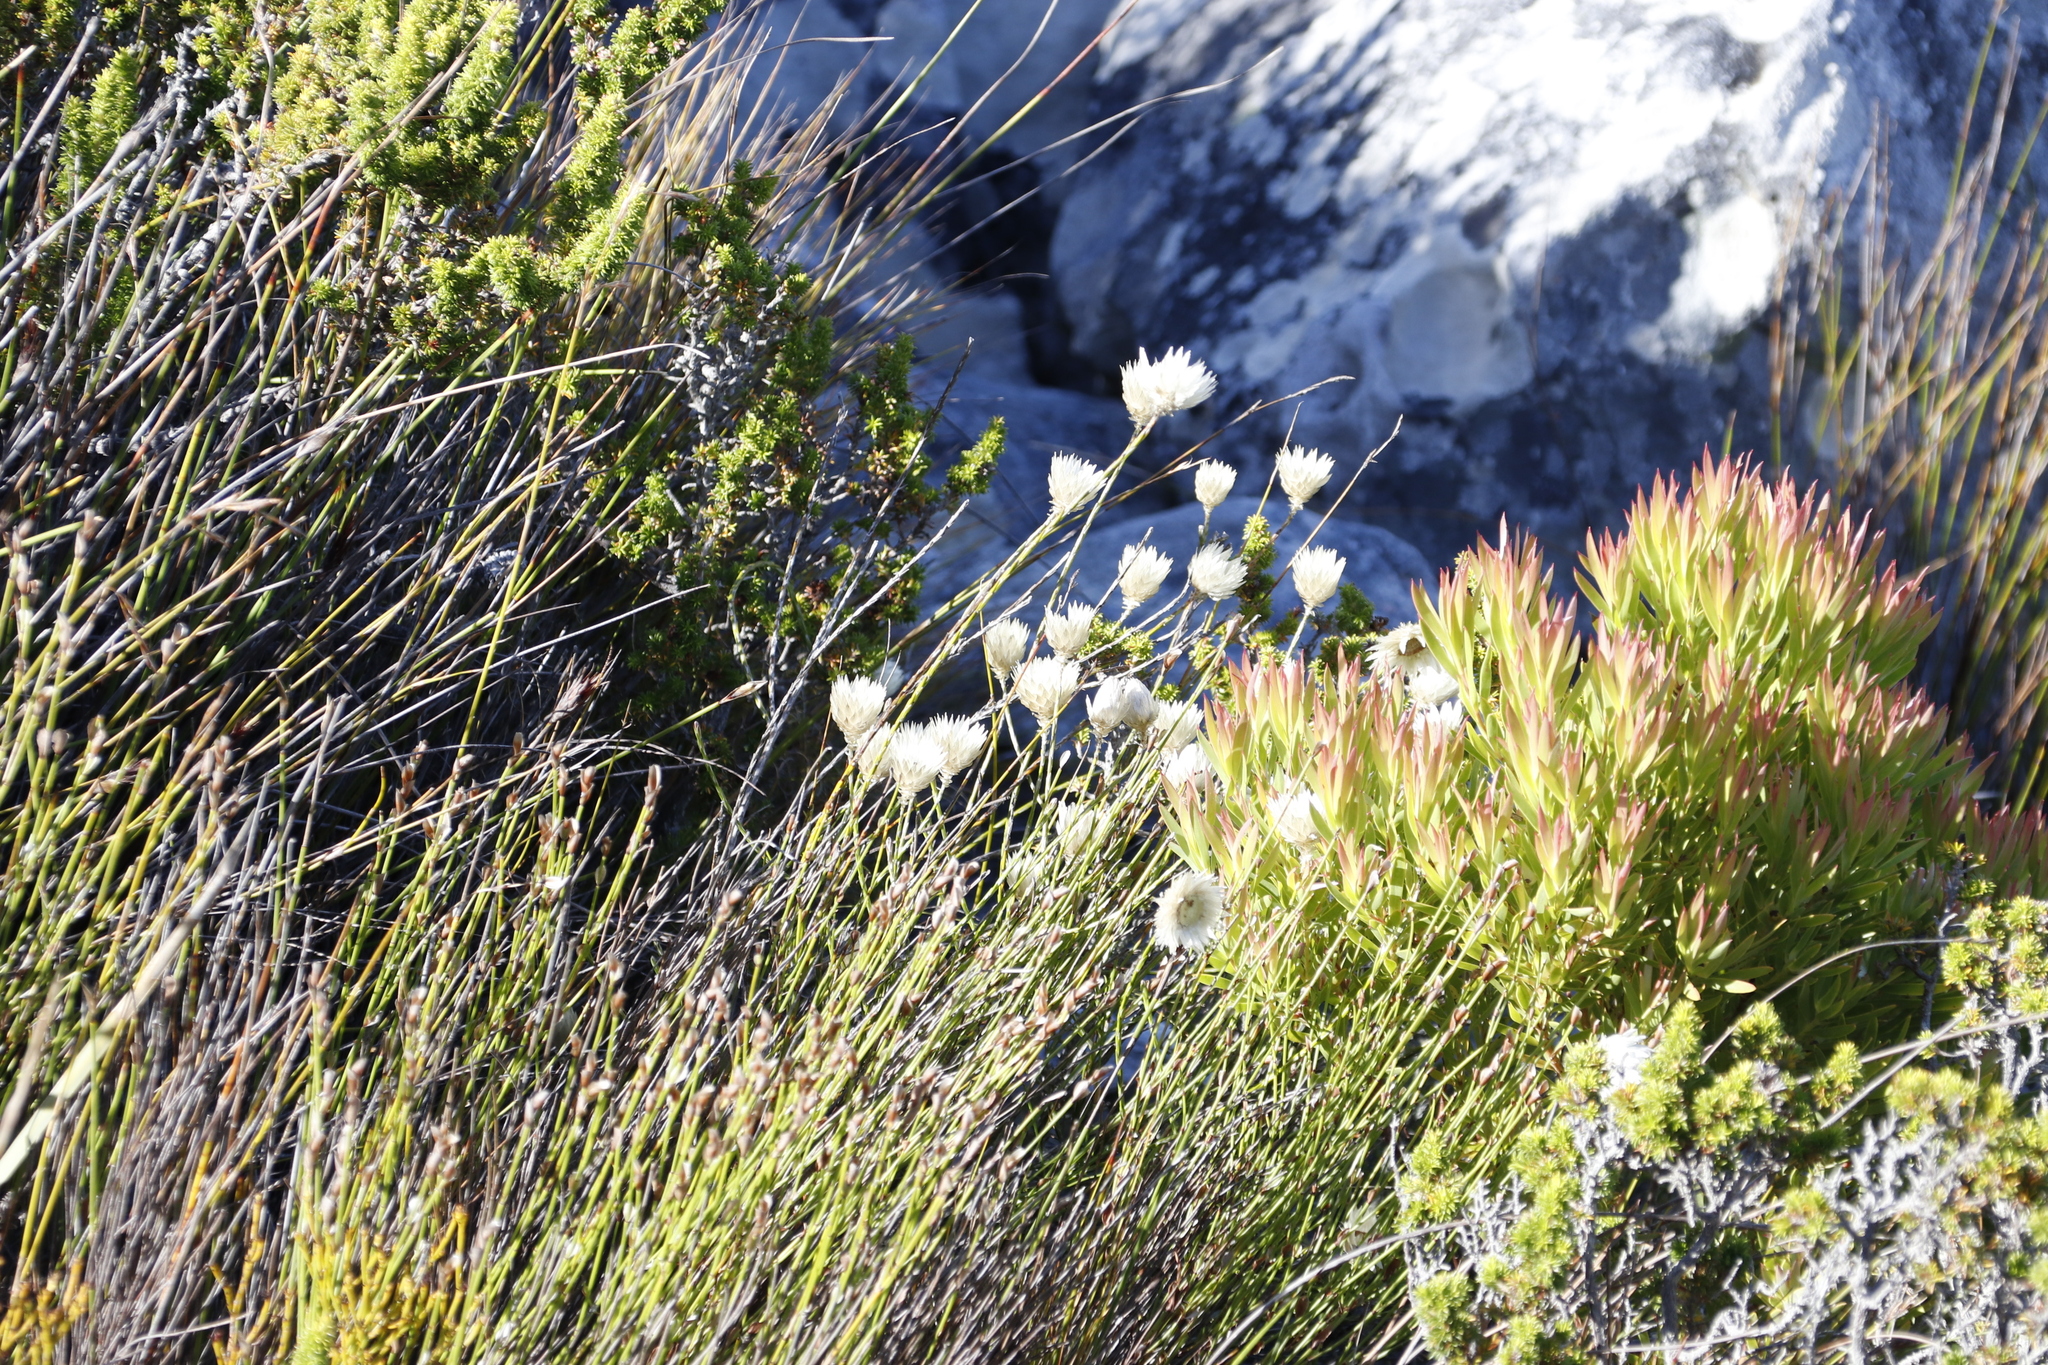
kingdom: Plantae
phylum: Tracheophyta
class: Magnoliopsida
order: Asterales
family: Asteraceae
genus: Edmondia
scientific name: Edmondia sesamoides
